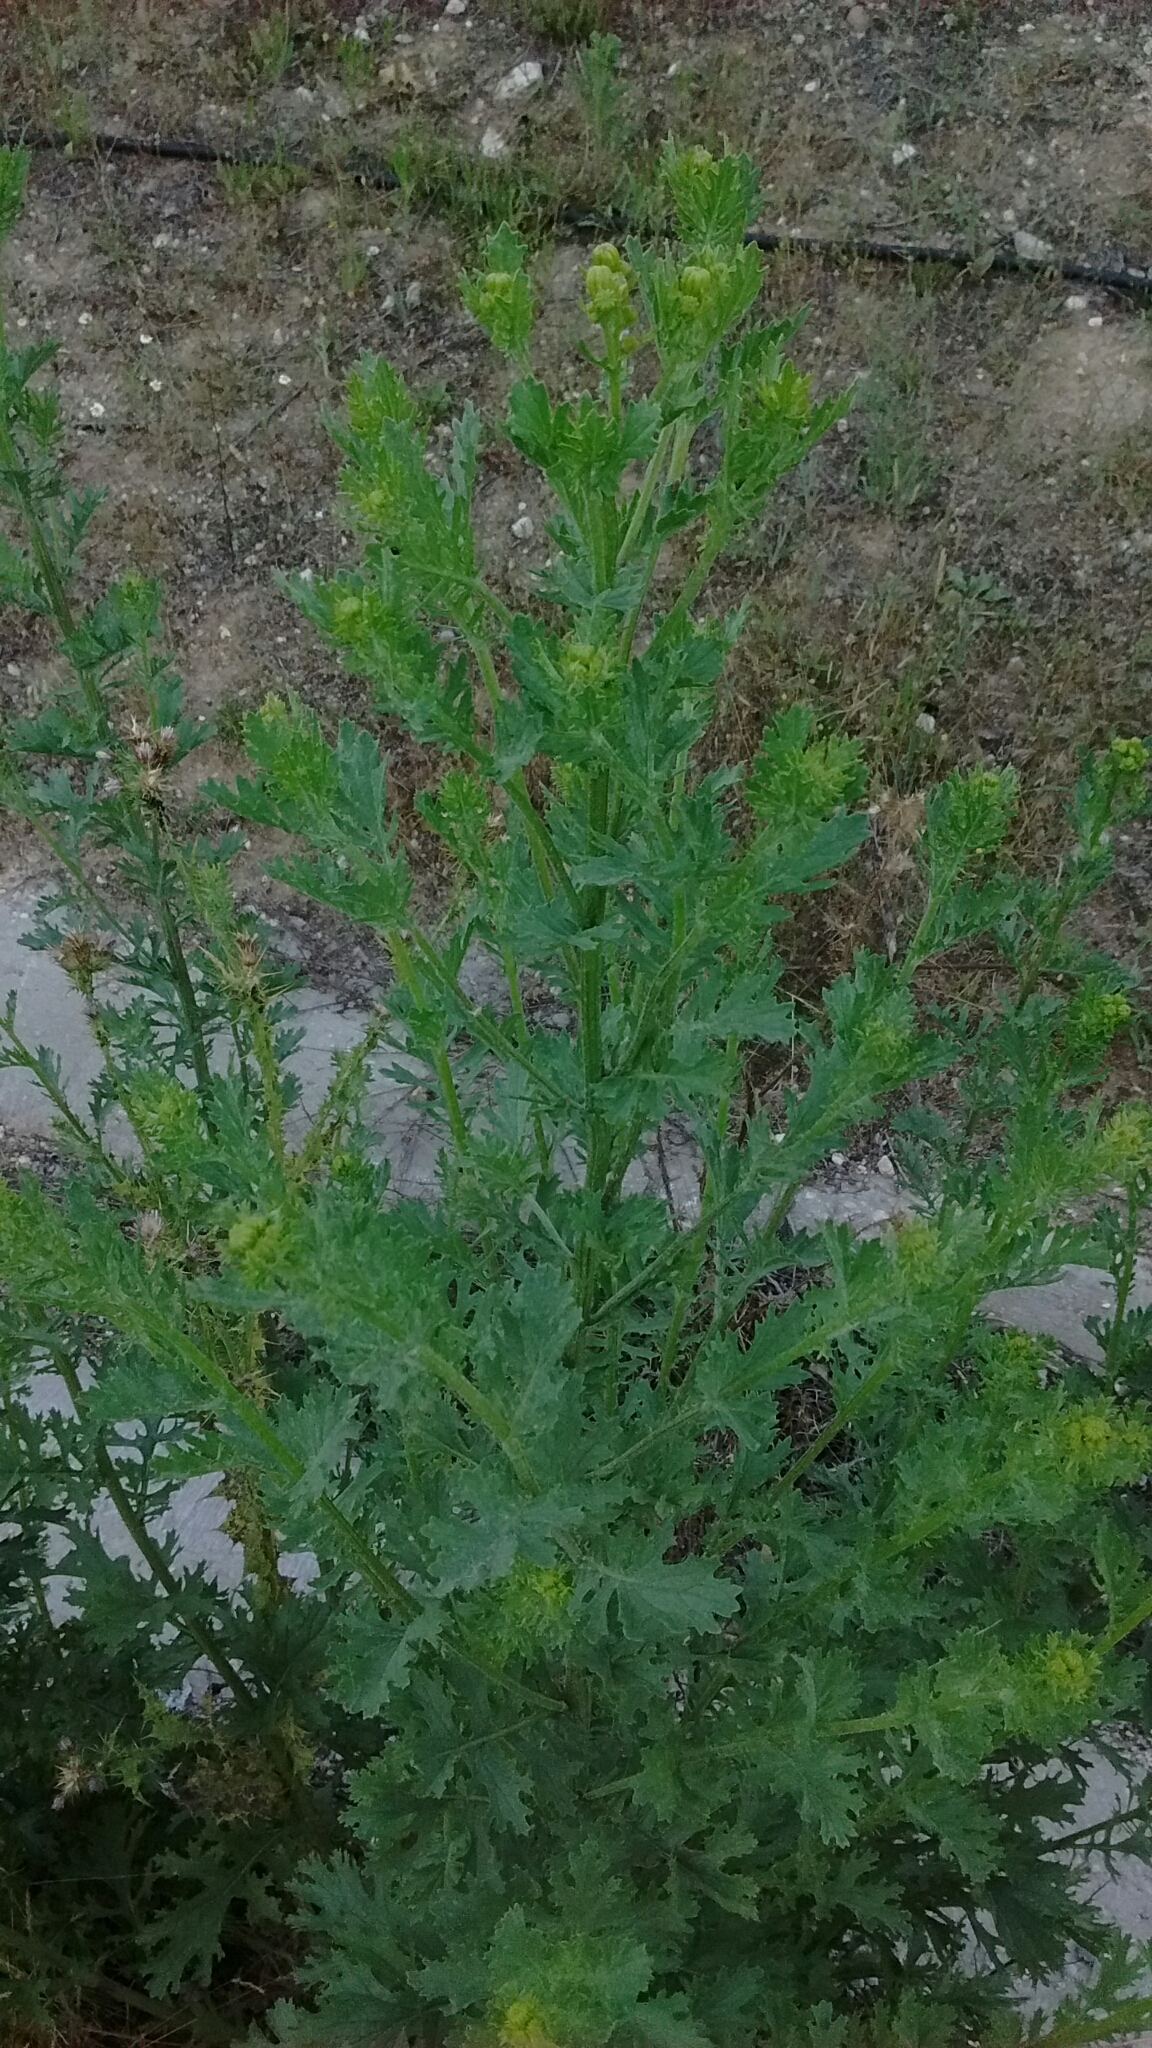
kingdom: Plantae
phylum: Tracheophyta
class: Magnoliopsida
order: Asterales
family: Asteraceae
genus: Jacobaea
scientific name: Jacobaea vulgaris
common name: Stinking willie
